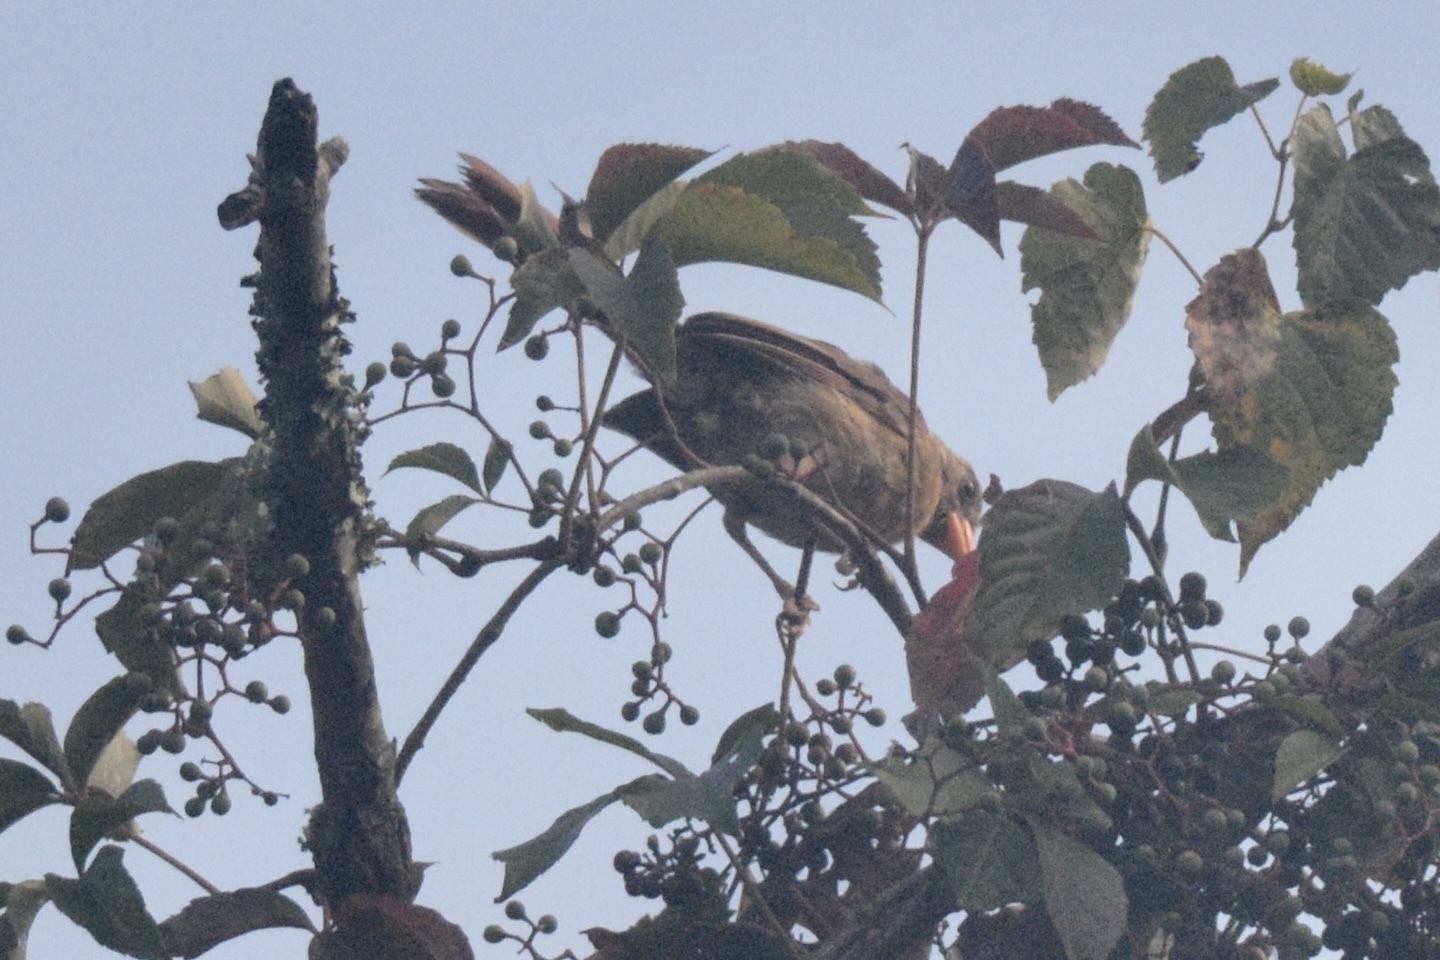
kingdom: Animalia
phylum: Chordata
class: Aves
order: Passeriformes
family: Cardinalidae
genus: Cardinalis
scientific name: Cardinalis cardinalis
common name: Northern cardinal
